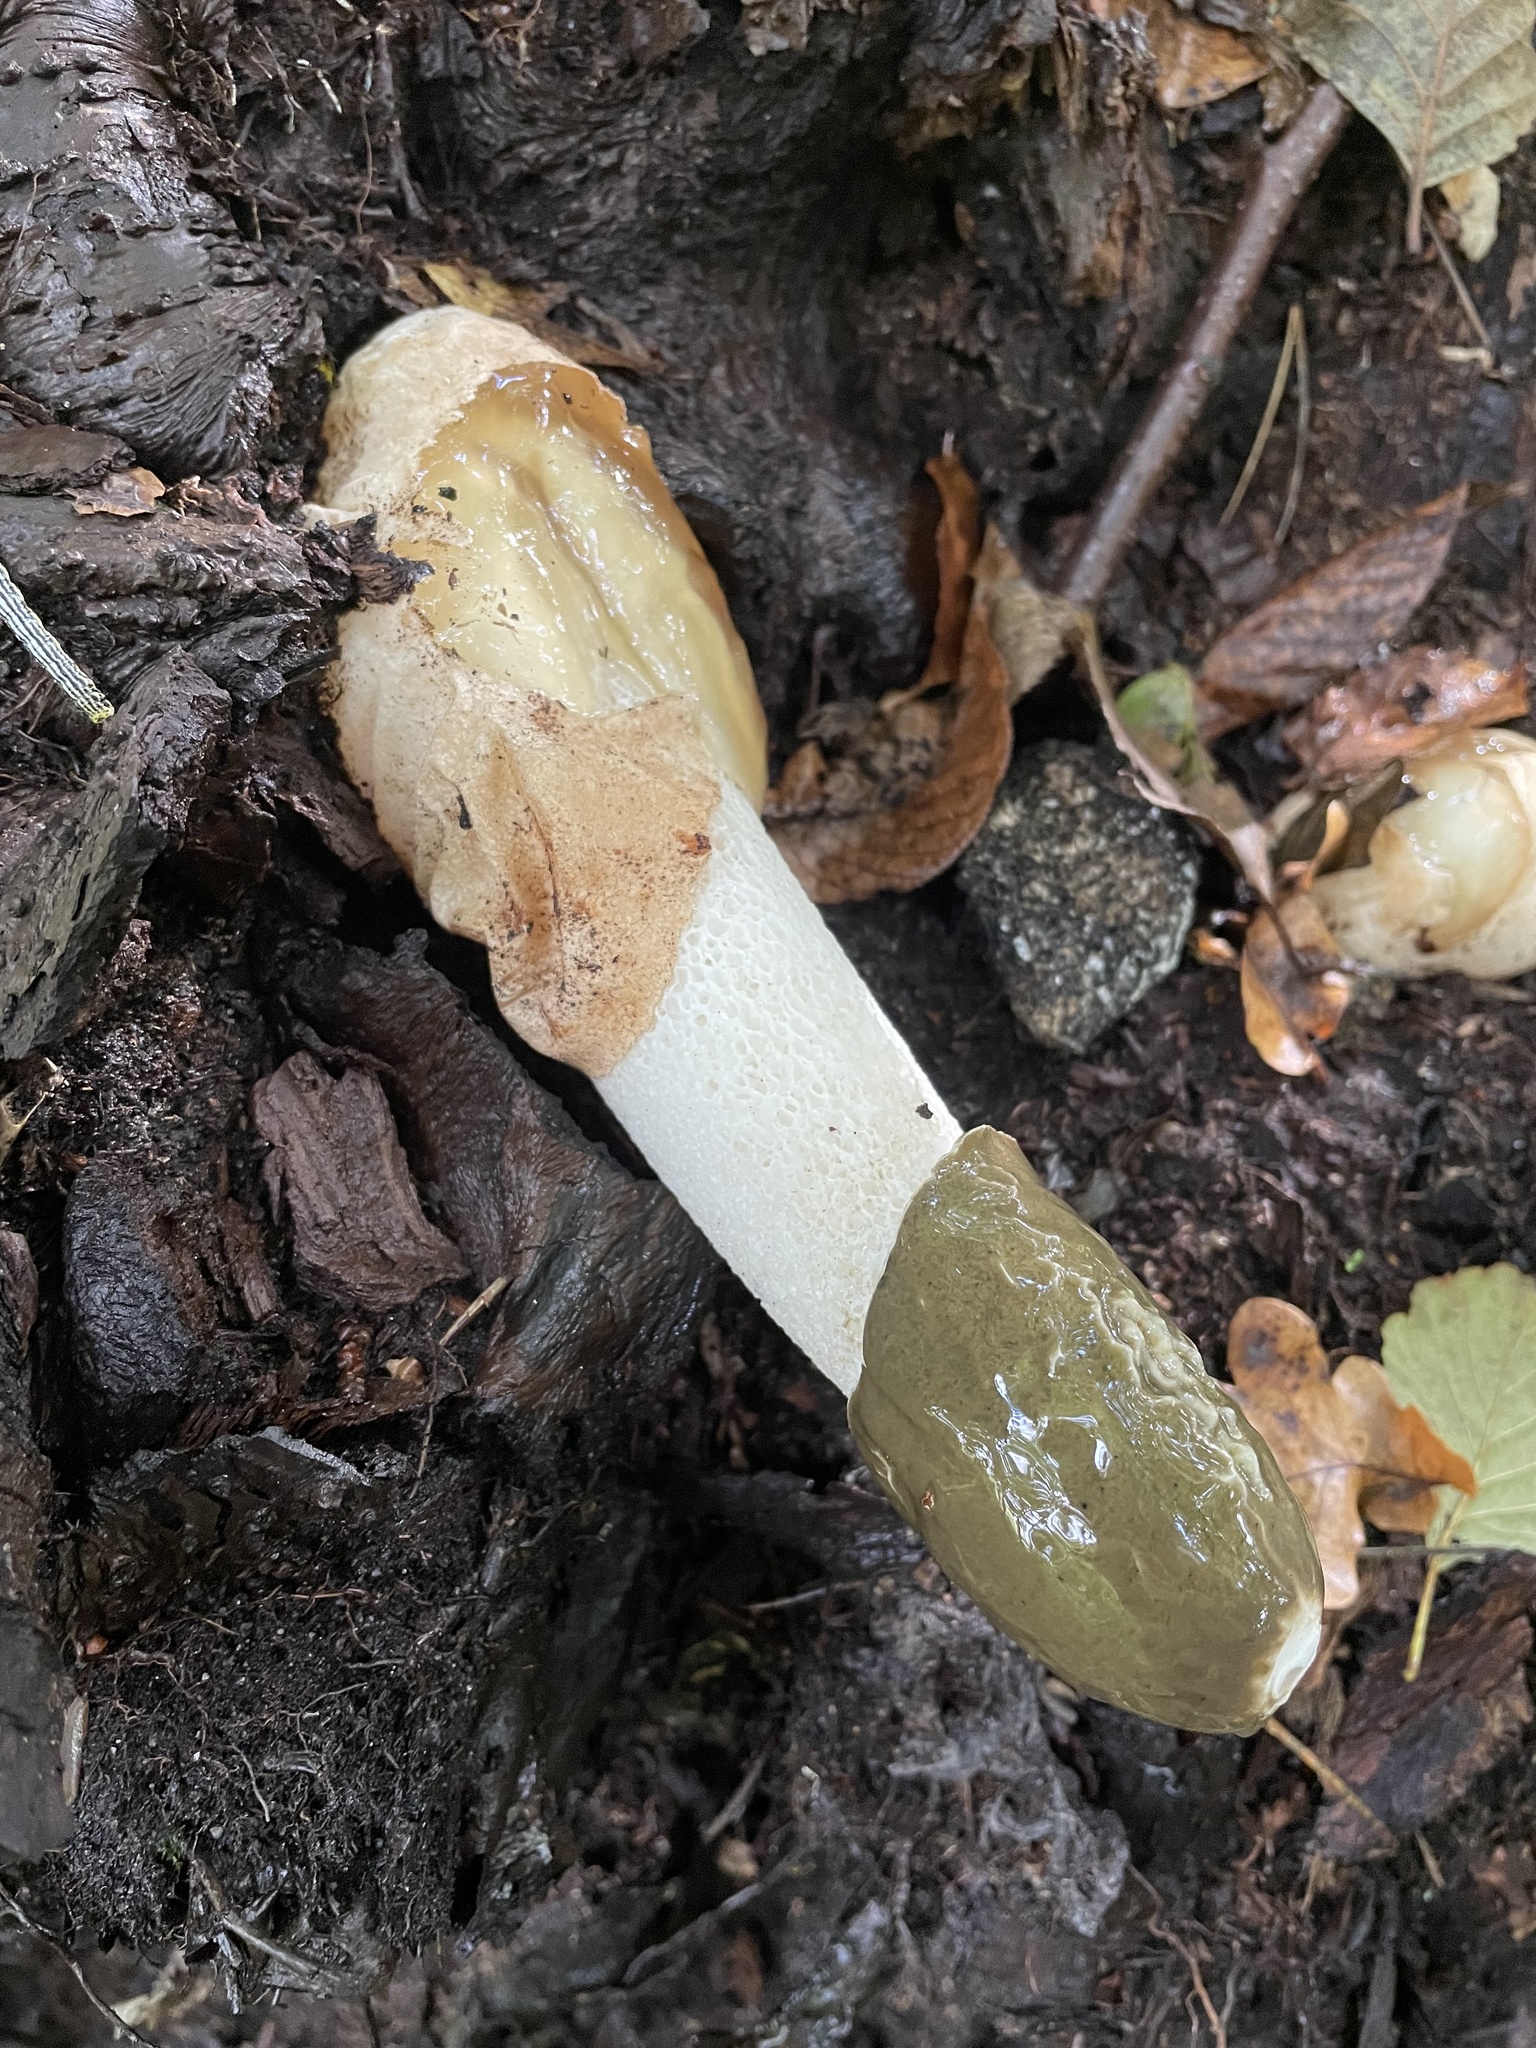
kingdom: Fungi
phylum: Basidiomycota
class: Agaricomycetes
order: Phallales
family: Phallaceae
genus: Phallus
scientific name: Phallus impudicus
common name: Common stinkhorn
